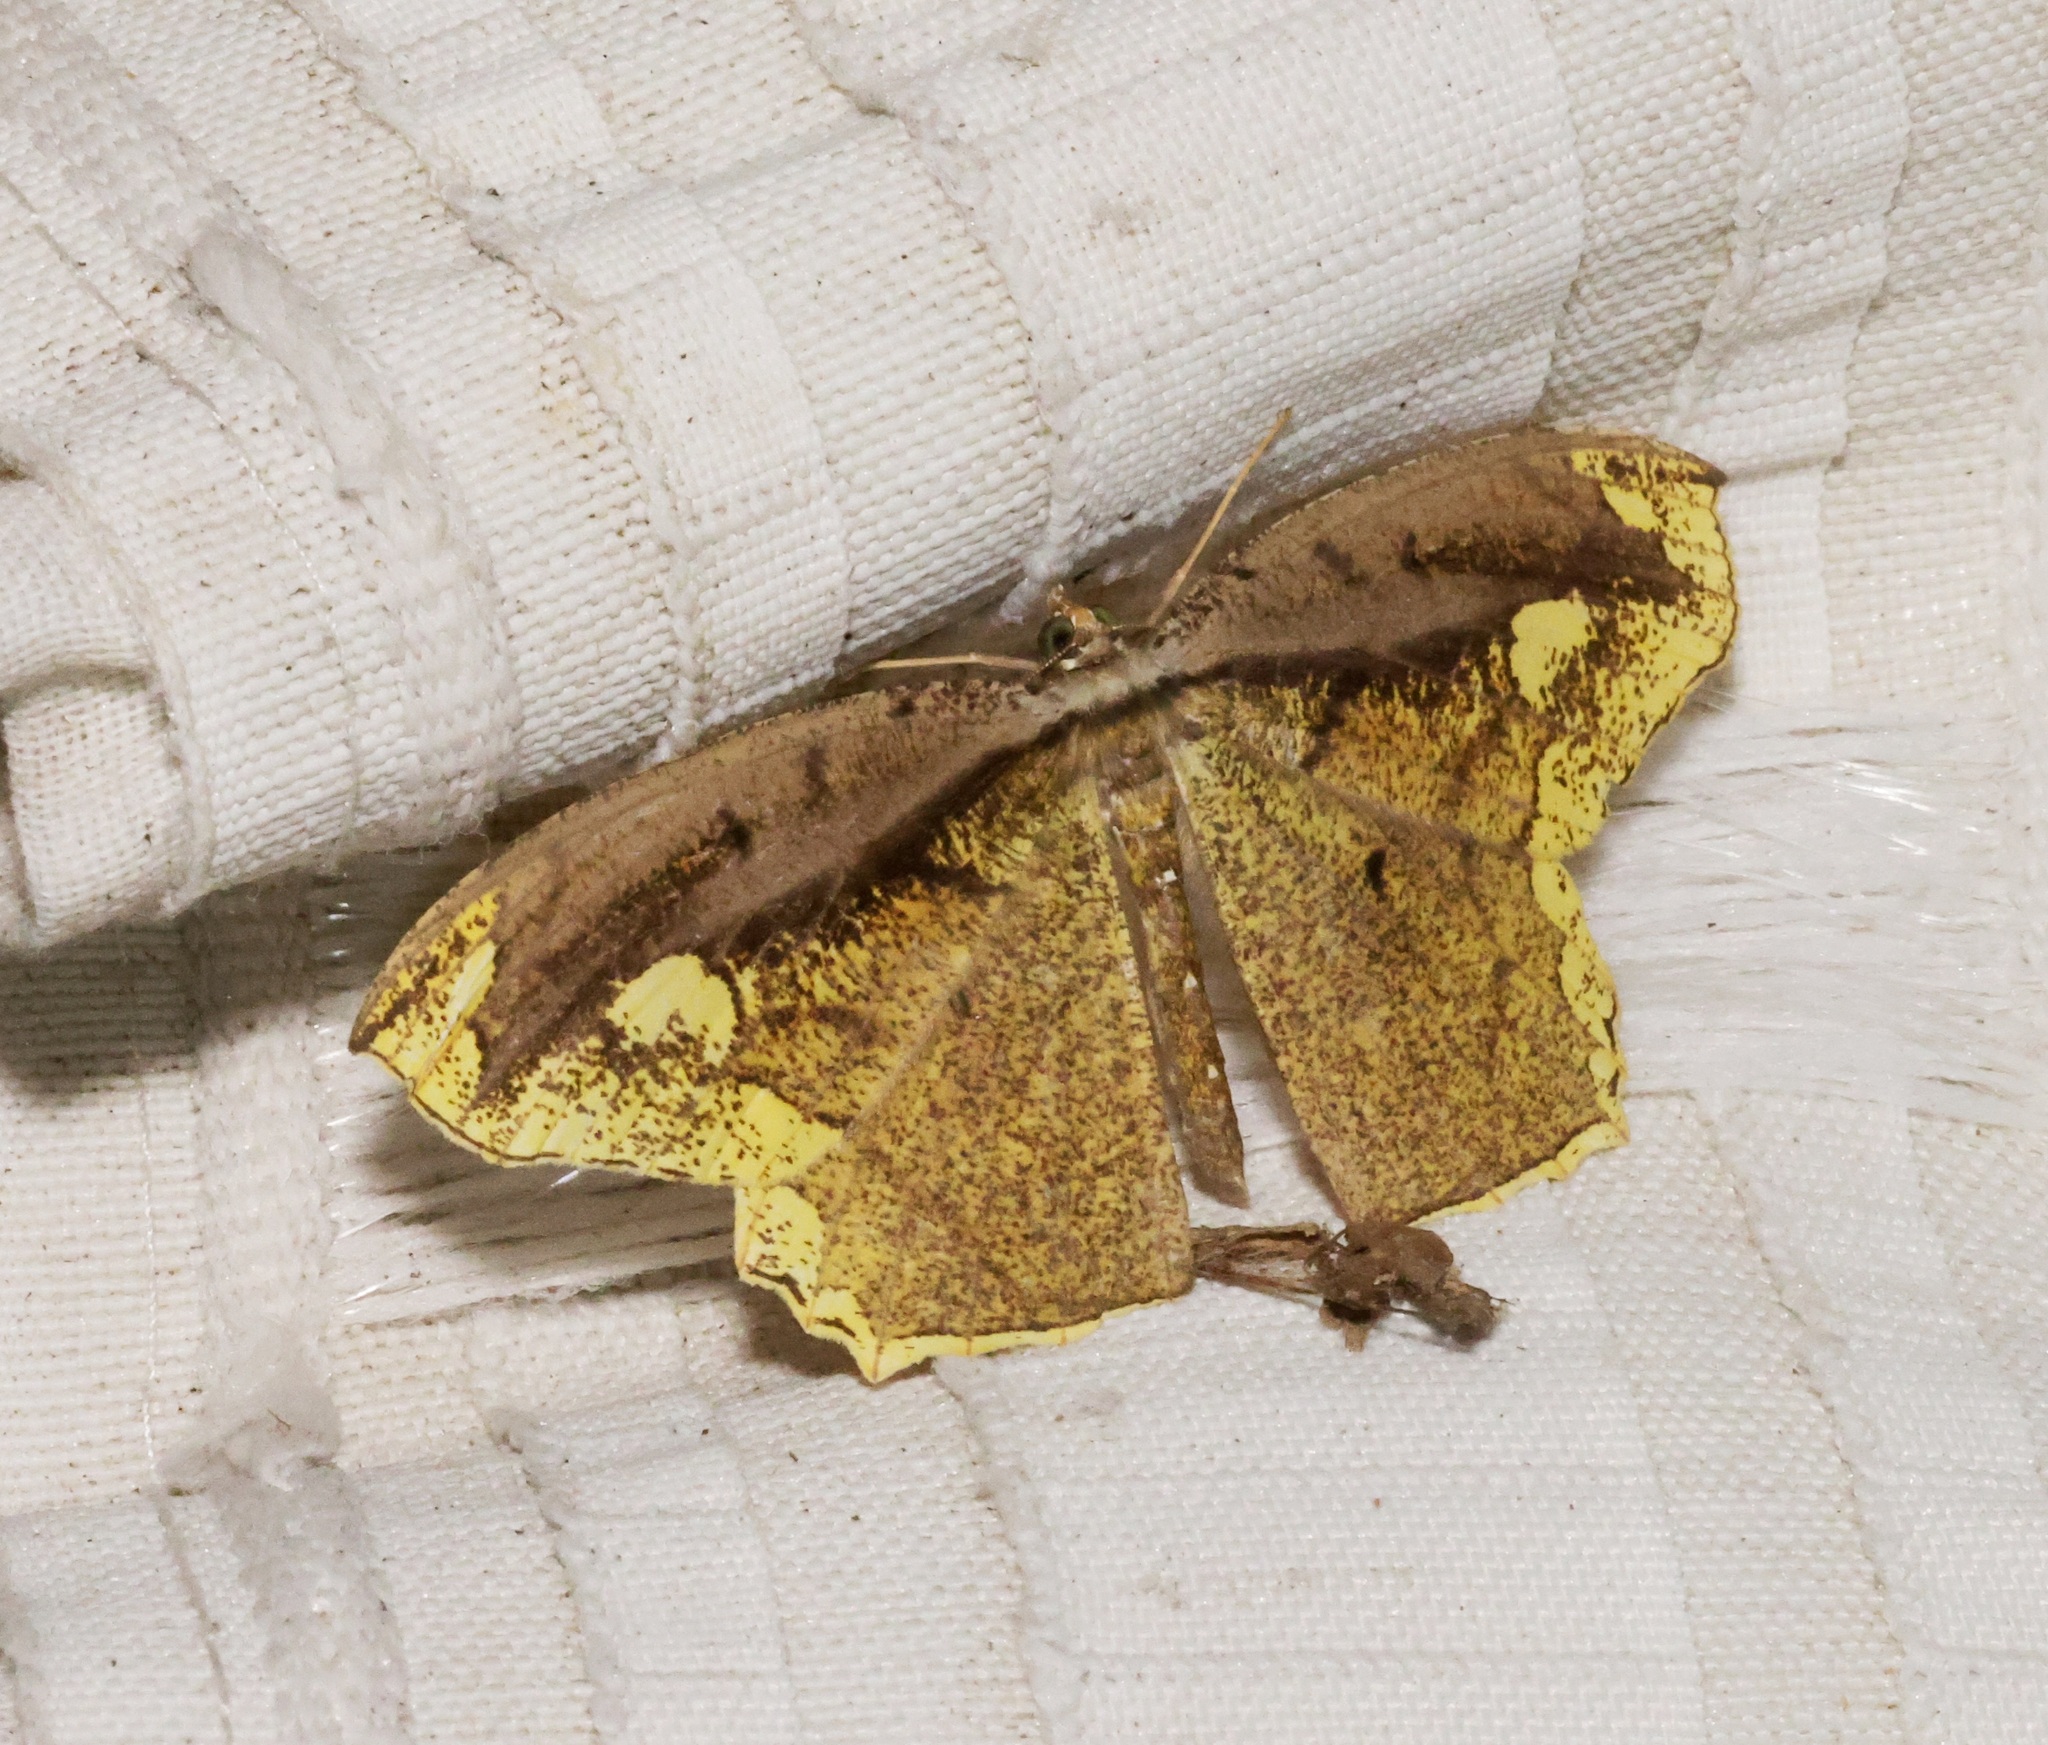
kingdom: Animalia
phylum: Arthropoda
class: Insecta
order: Lepidoptera
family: Geometridae
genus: Pareumelea
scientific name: Pareumelea eugeniata
